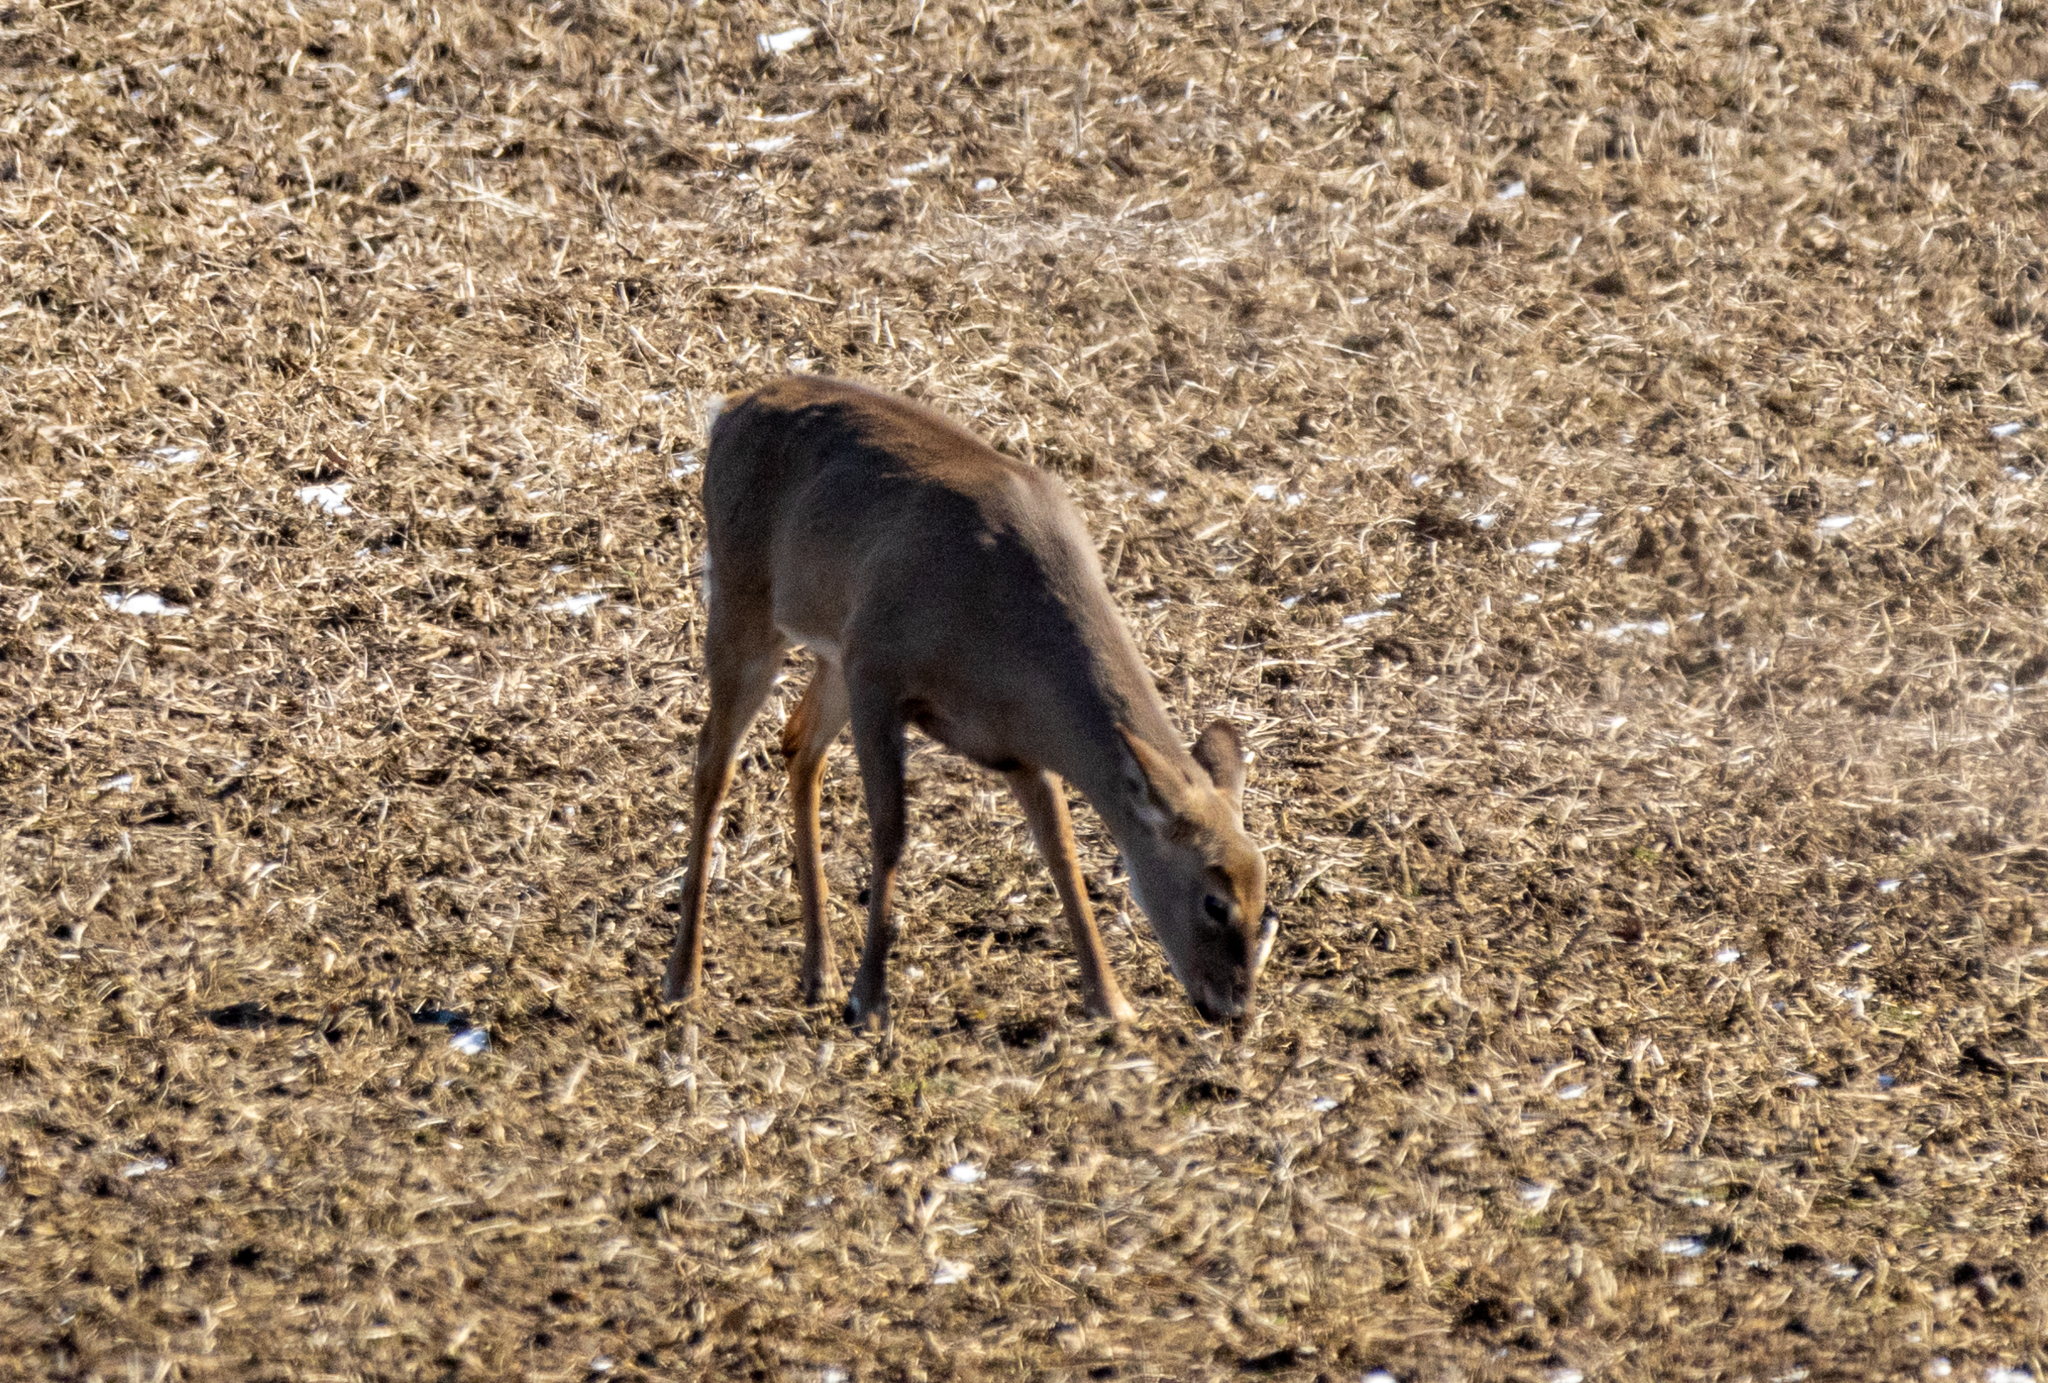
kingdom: Animalia
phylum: Chordata
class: Mammalia
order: Artiodactyla
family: Cervidae
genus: Odocoileus
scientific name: Odocoileus virginianus
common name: White-tailed deer
